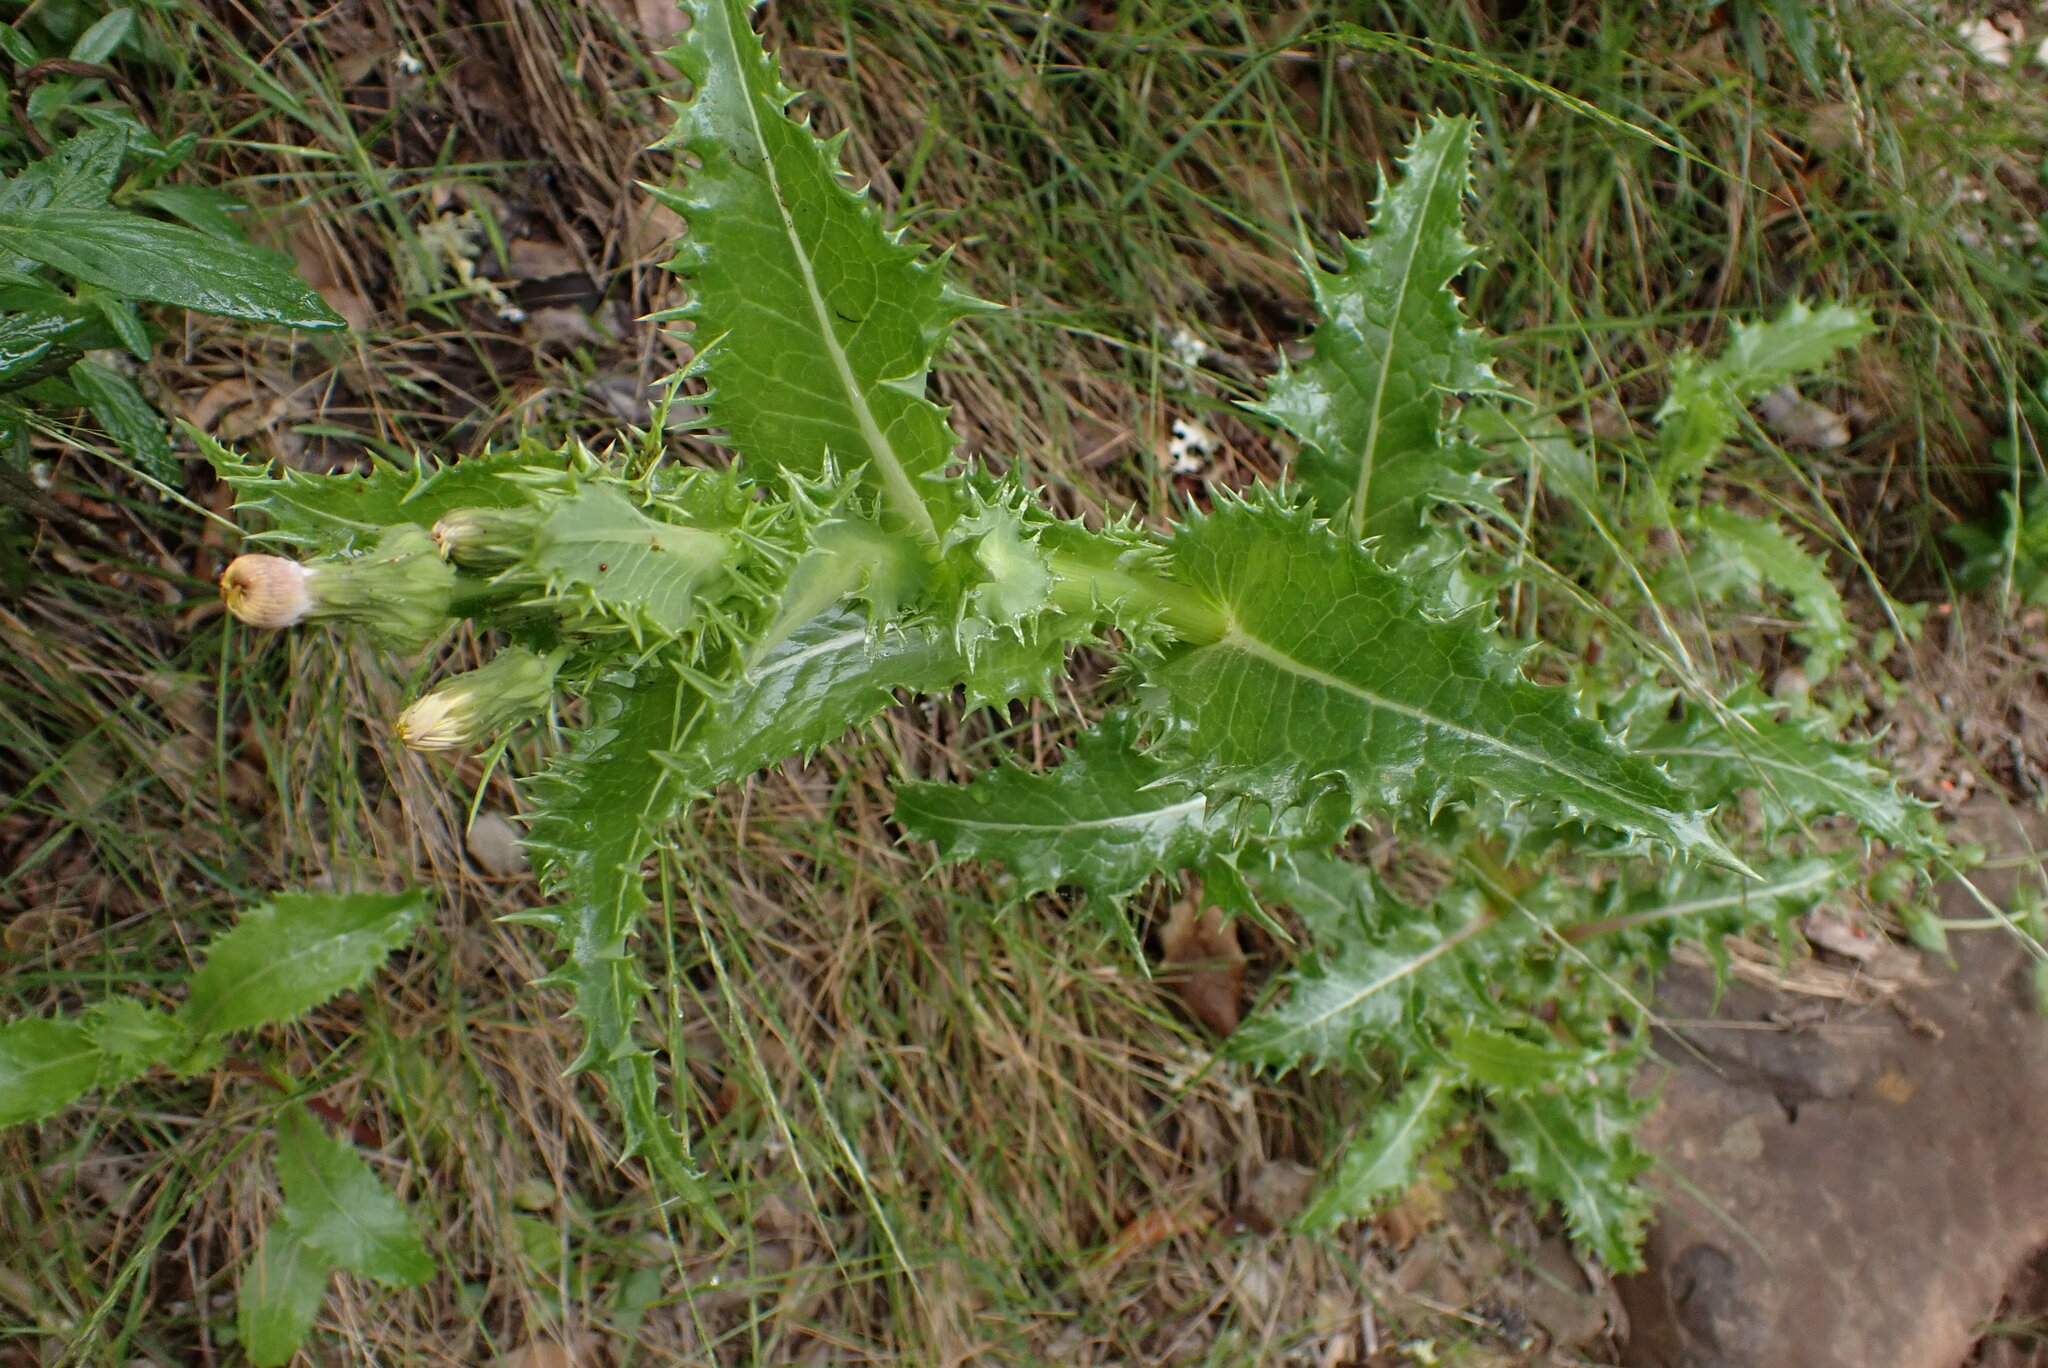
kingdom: Plantae
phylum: Tracheophyta
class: Magnoliopsida
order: Asterales
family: Asteraceae
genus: Sonchus
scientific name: Sonchus asper
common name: Prickly sow-thistle
